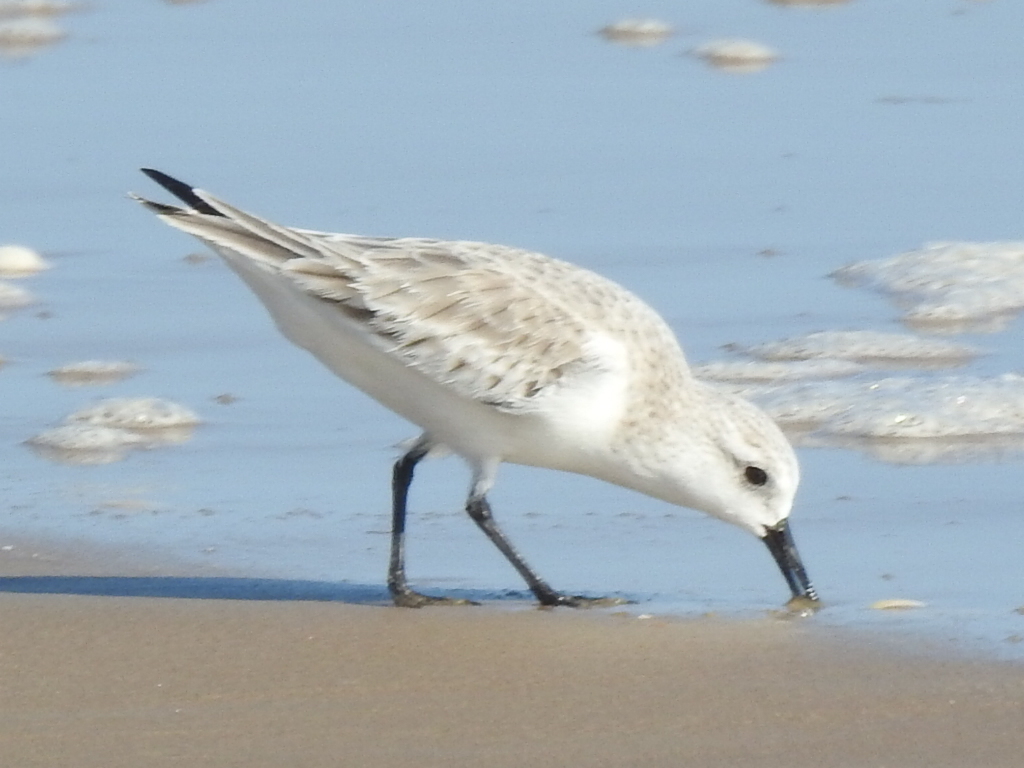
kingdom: Animalia
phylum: Chordata
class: Aves
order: Charadriiformes
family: Scolopacidae
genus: Calidris
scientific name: Calidris alba
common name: Sanderling
